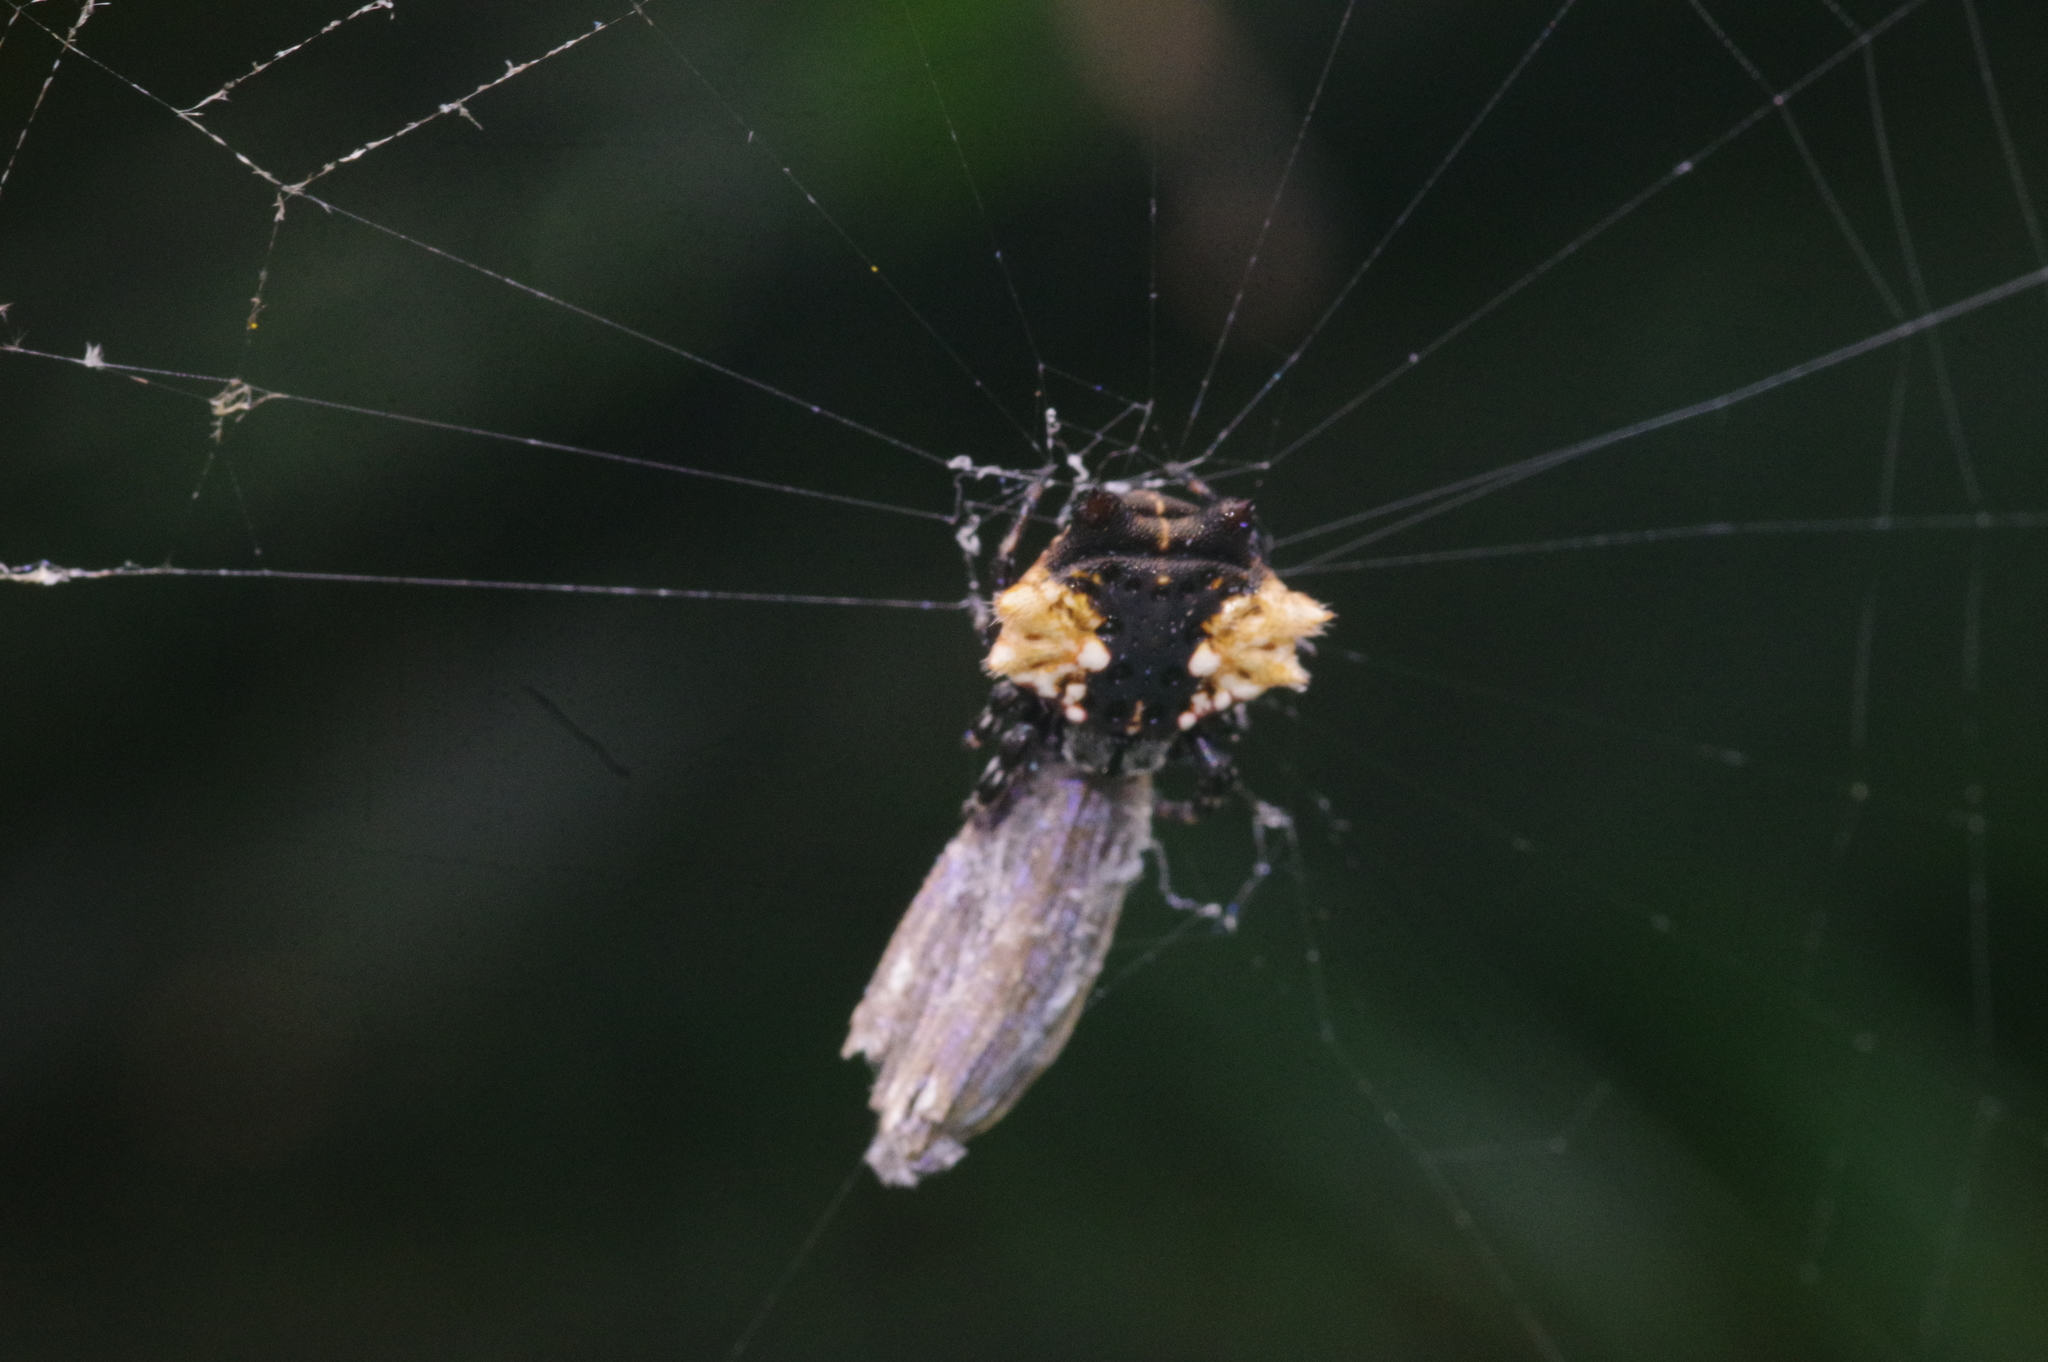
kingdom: Animalia
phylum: Arthropoda
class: Arachnida
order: Araneae
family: Araneidae
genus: Gasteracantha
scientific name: Gasteracantha mediofusca
